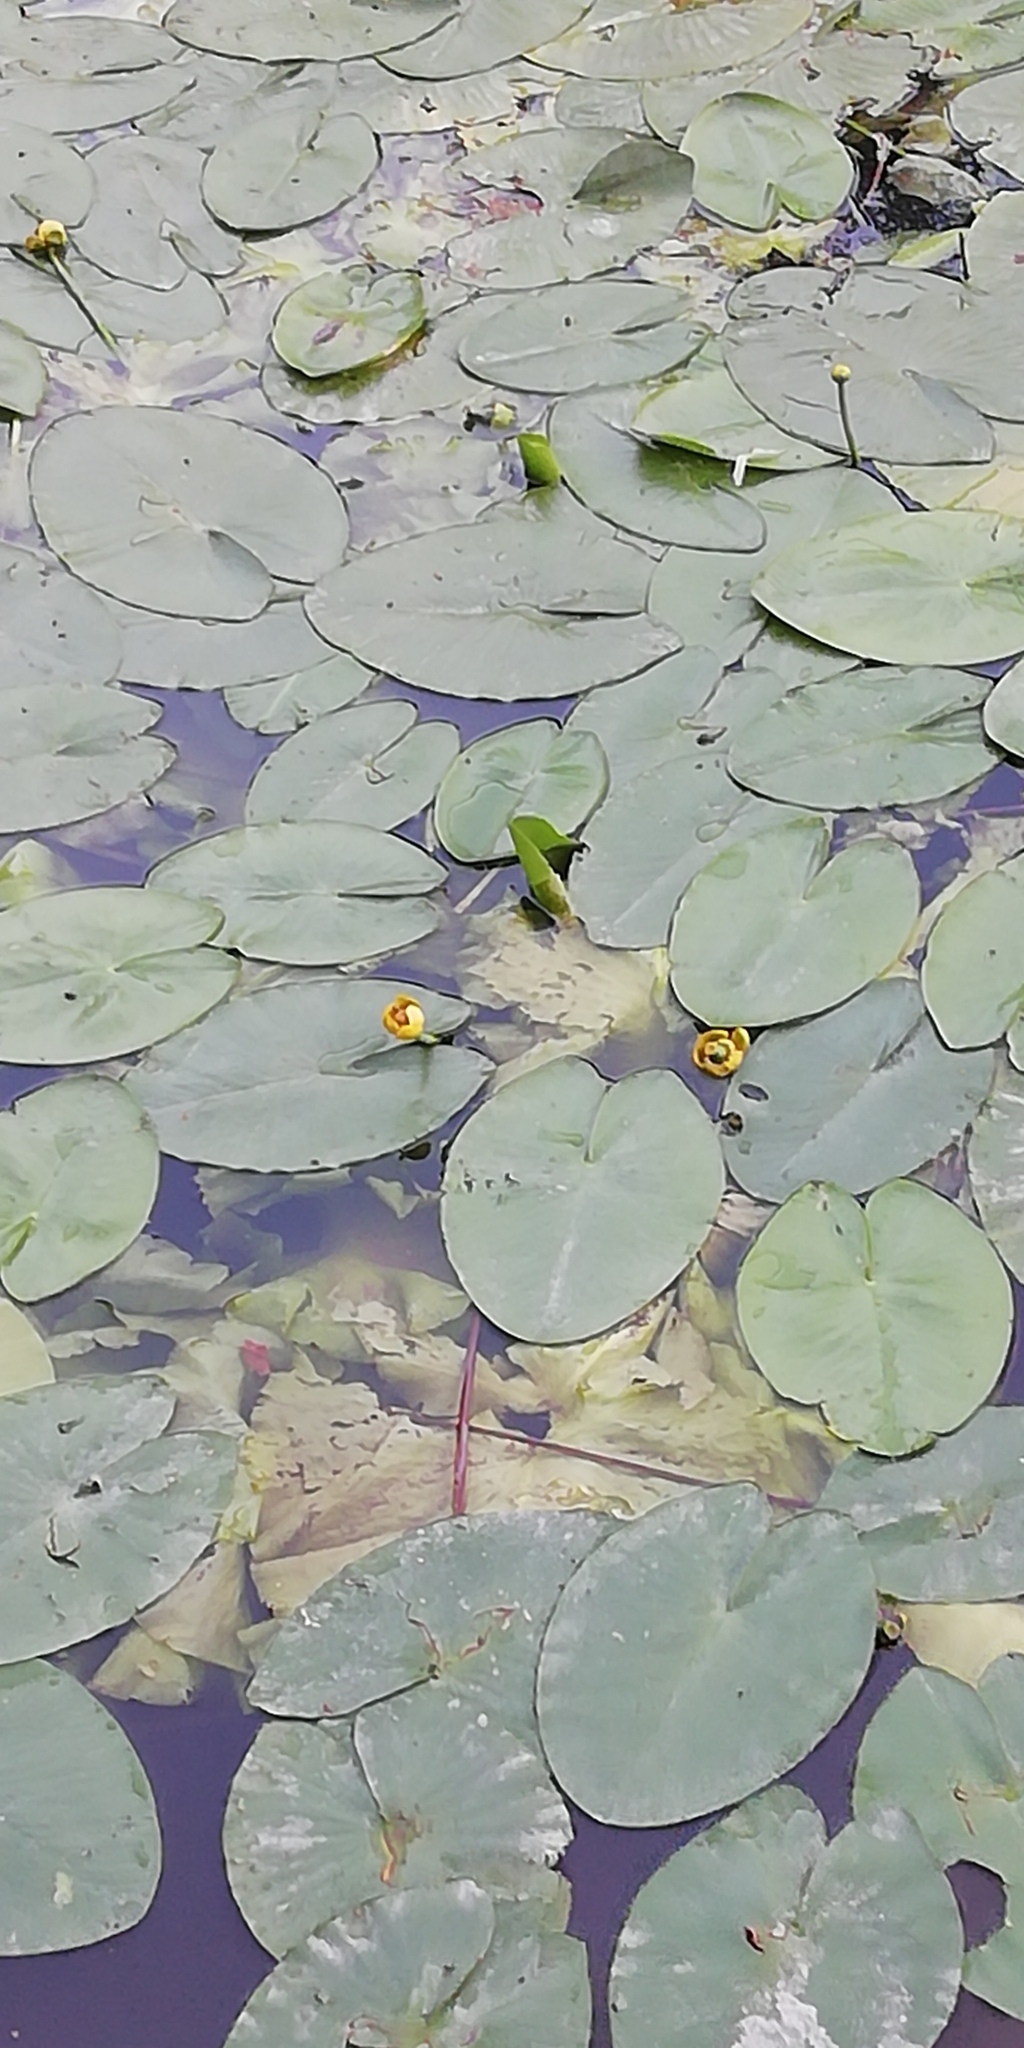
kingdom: Plantae
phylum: Tracheophyta
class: Magnoliopsida
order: Nymphaeales
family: Nymphaeaceae
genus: Nuphar
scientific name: Nuphar lutea
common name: Yellow water-lily
